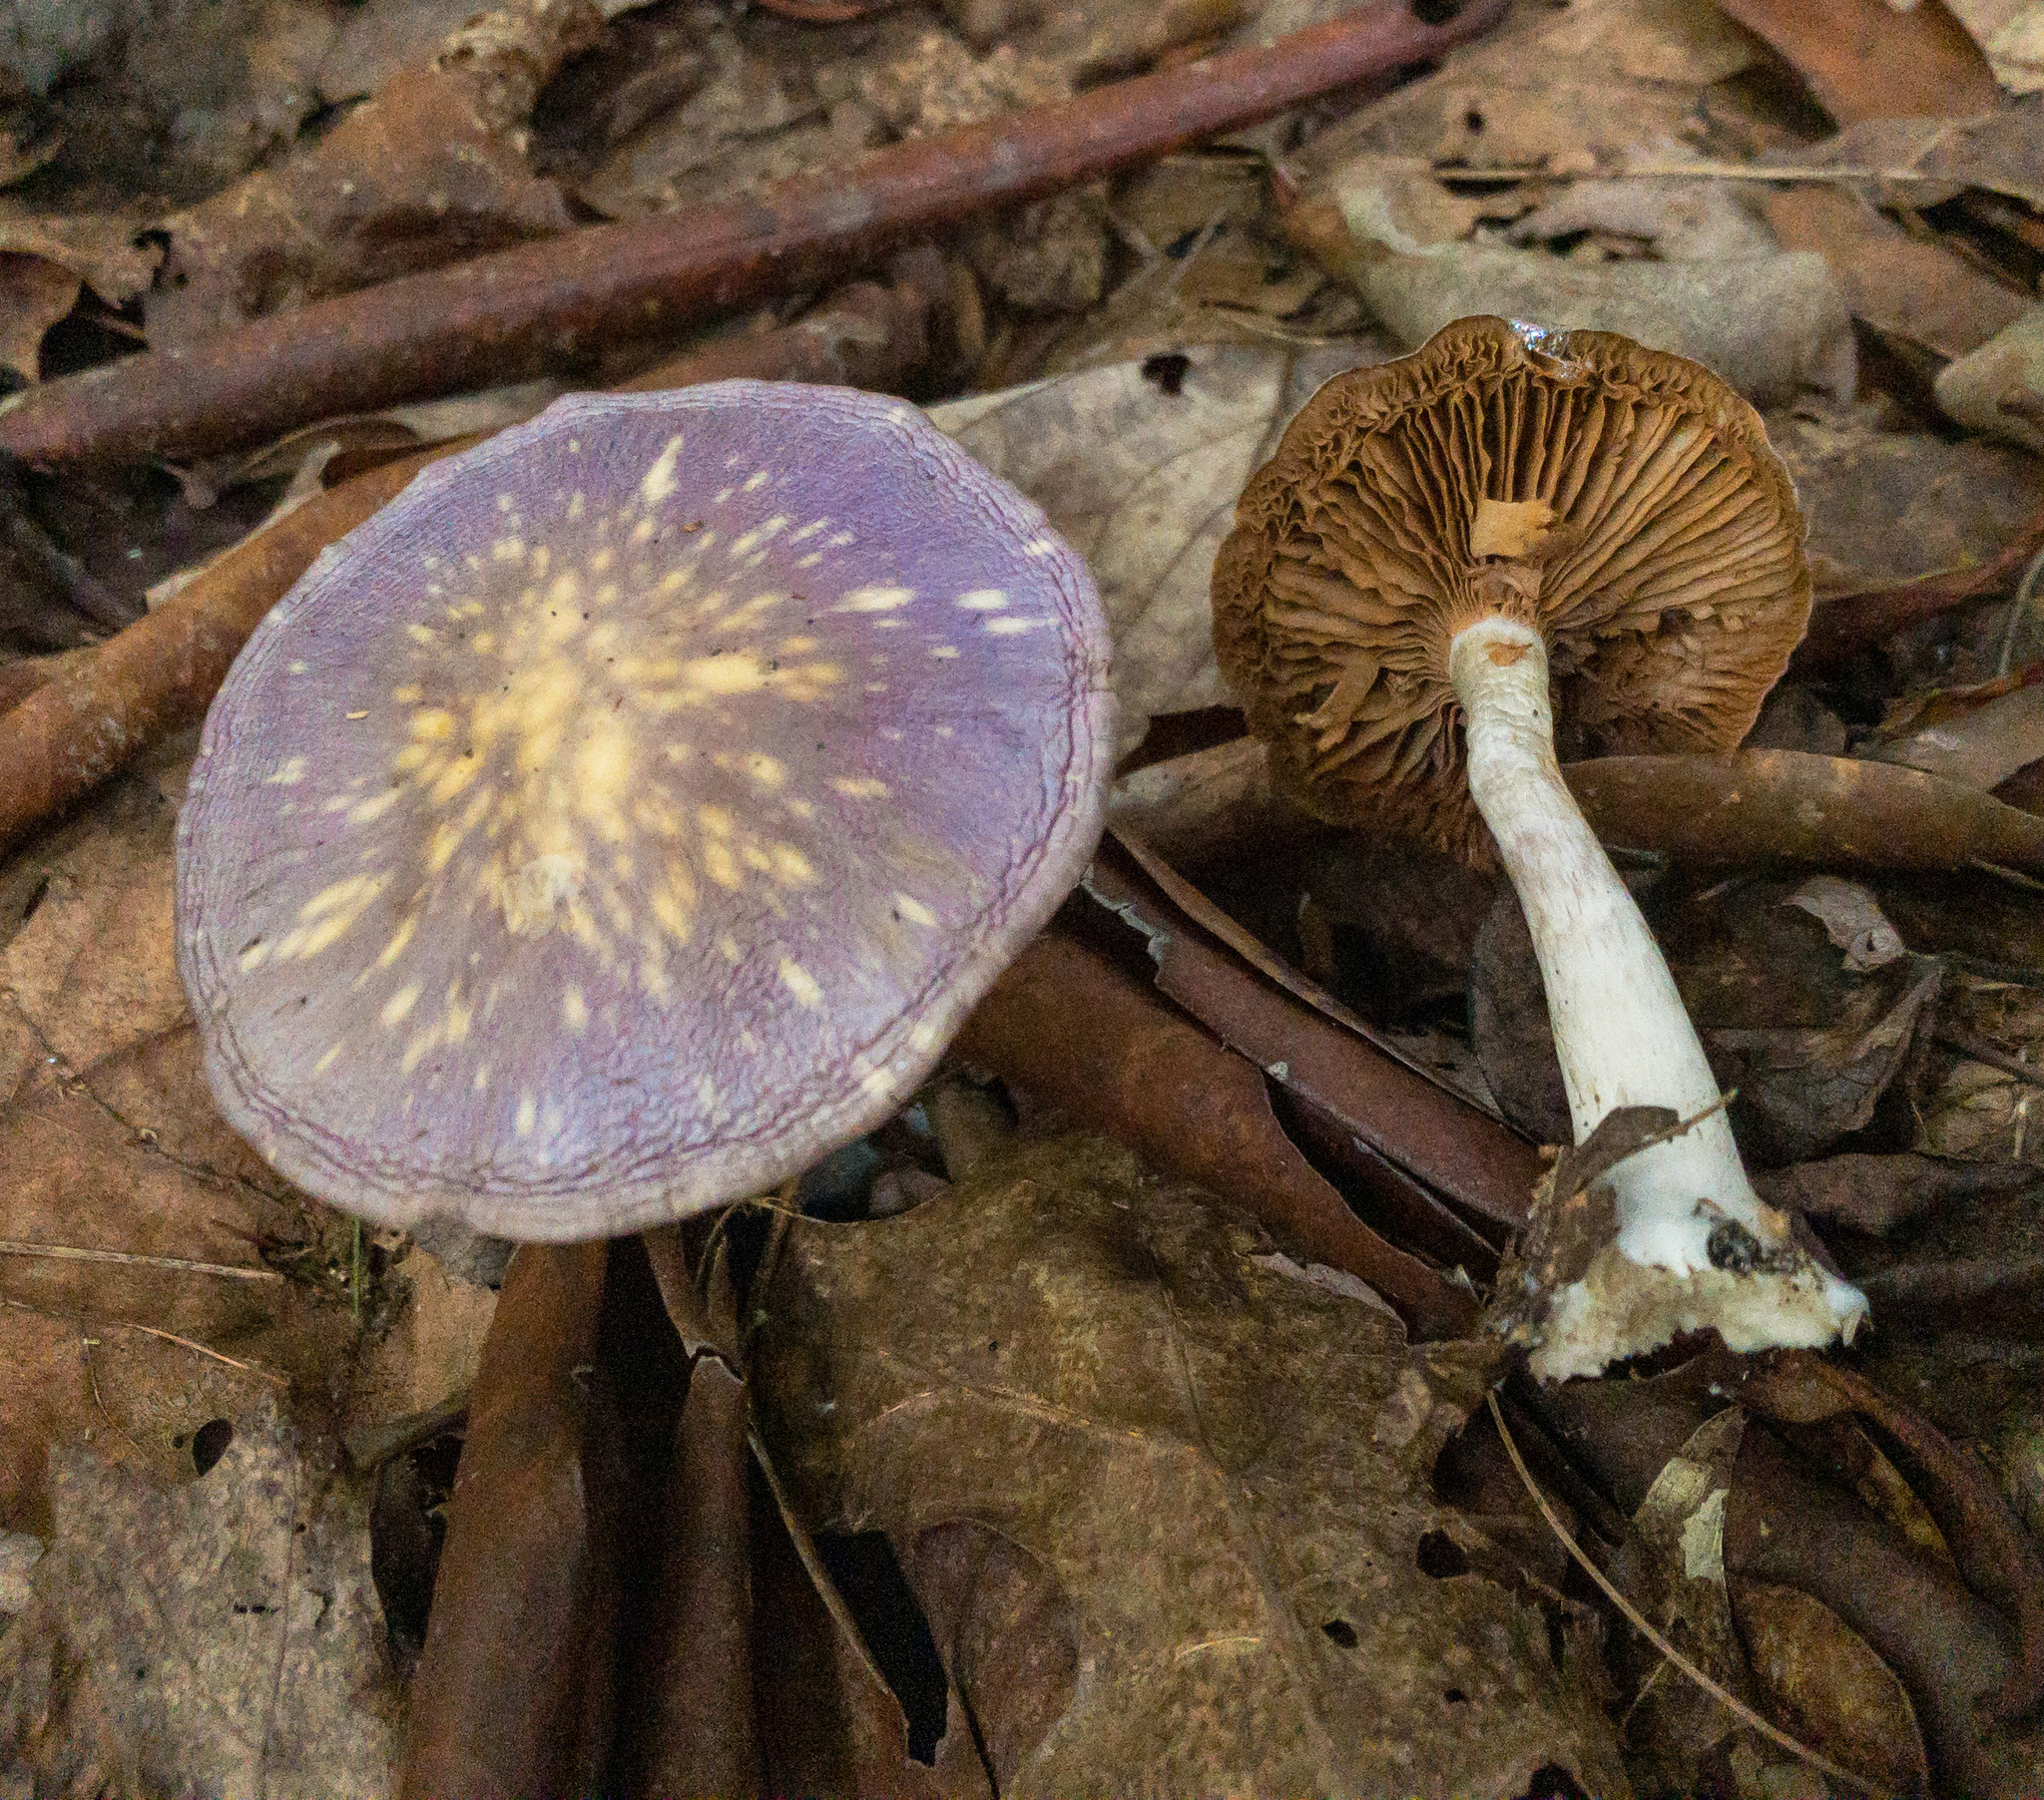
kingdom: Fungi
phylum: Basidiomycota
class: Agaricomycetes
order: Agaricales
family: Cortinariaceae
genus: Cortinarius
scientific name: Cortinarius iodes
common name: Viscid violet cort
